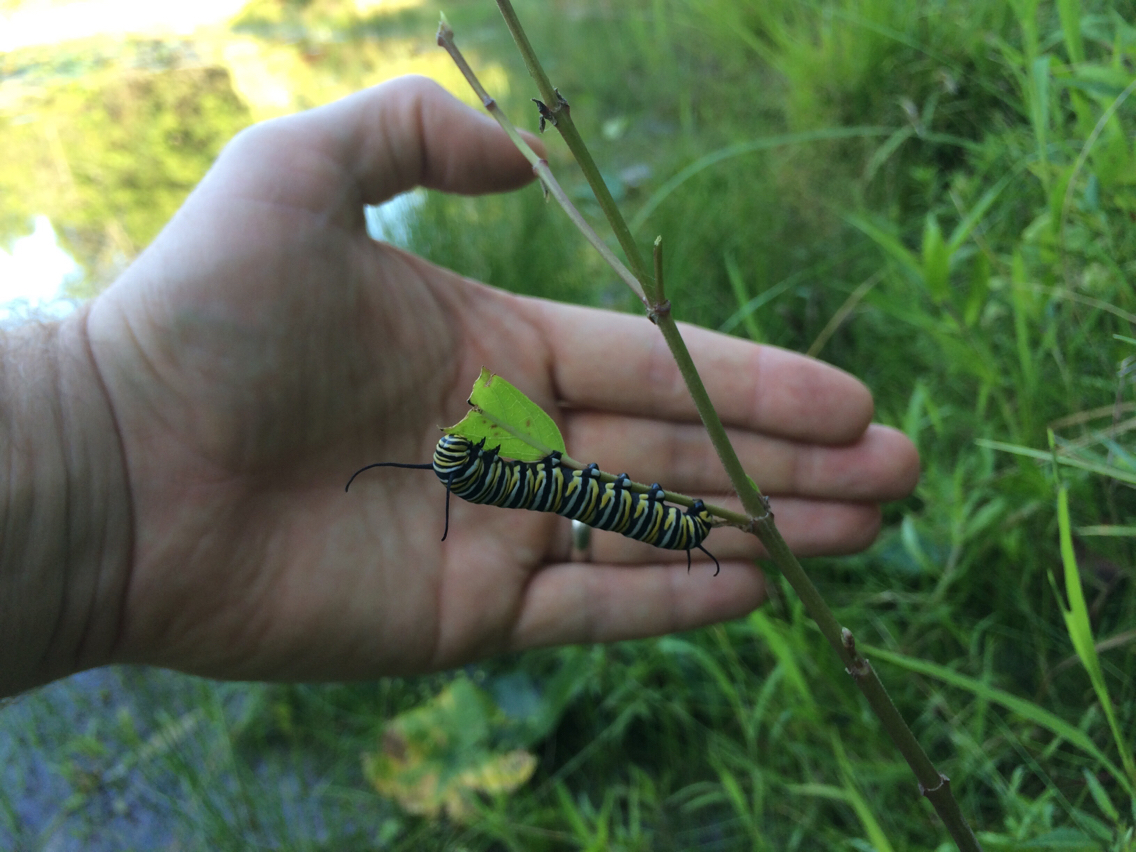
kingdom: Animalia
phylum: Arthropoda
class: Insecta
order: Lepidoptera
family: Nymphalidae
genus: Danaus
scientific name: Danaus plexippus
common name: Monarch
